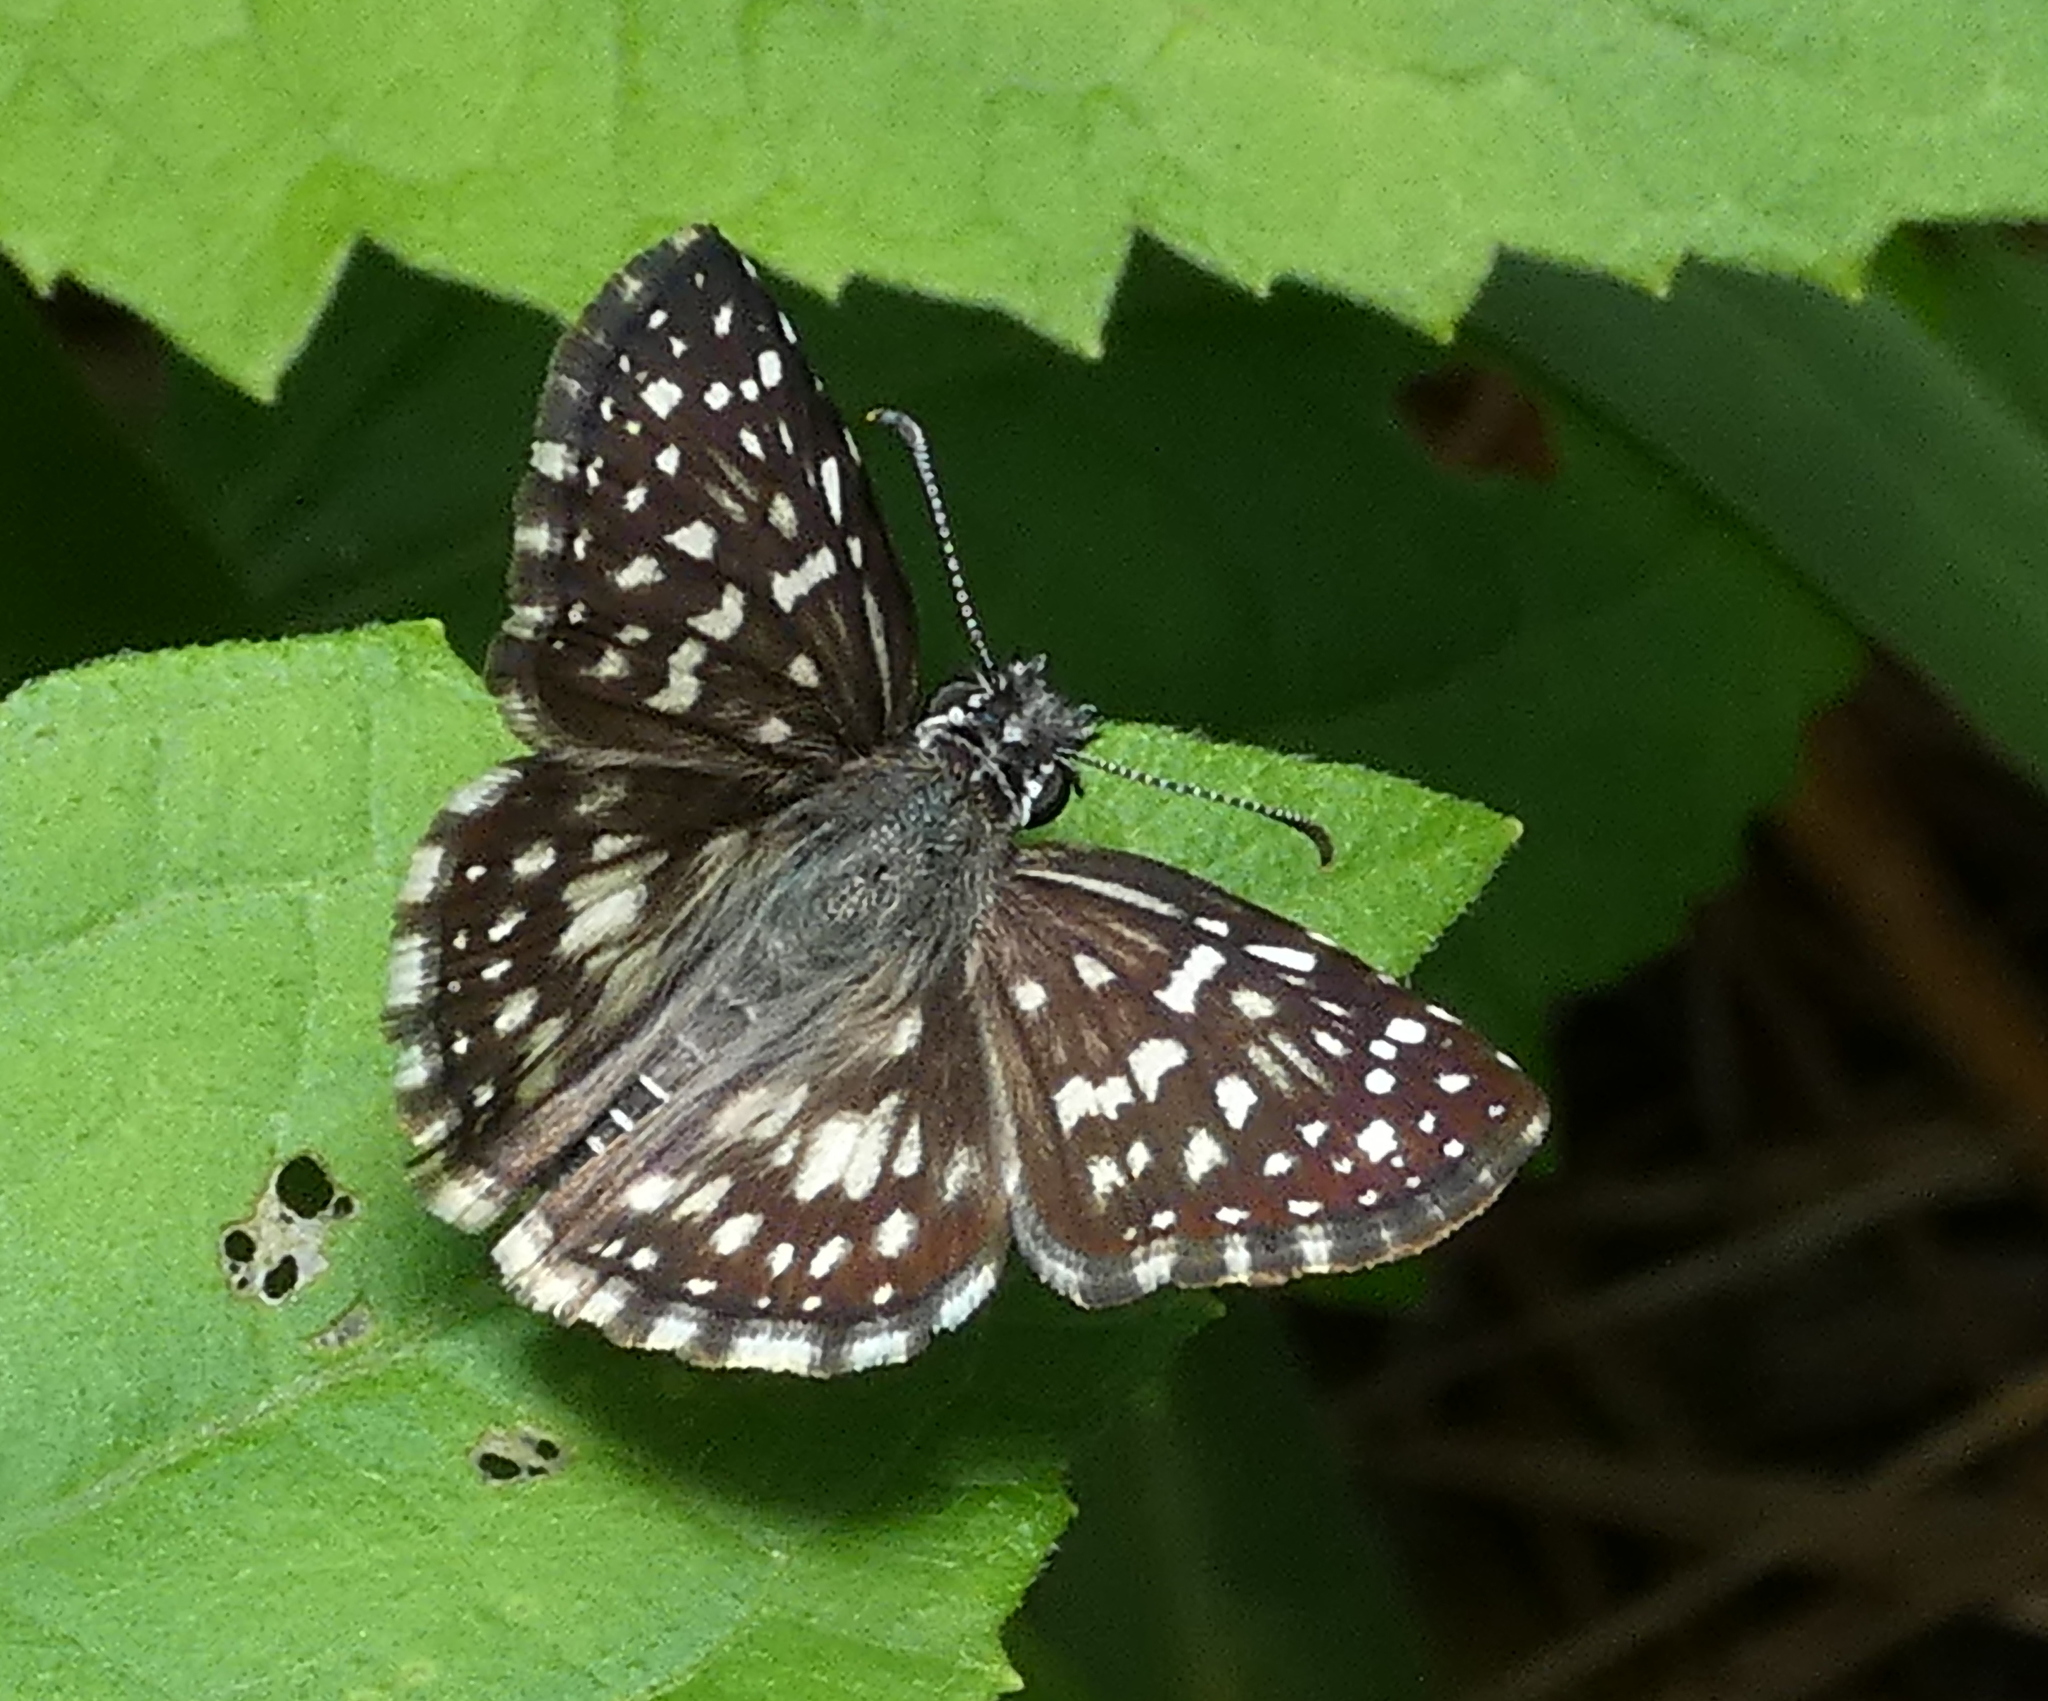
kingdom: Animalia
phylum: Arthropoda
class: Insecta
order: Lepidoptera
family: Hesperiidae
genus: Pyrgus
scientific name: Pyrgus oileus
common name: Tropical checkered-skipper
